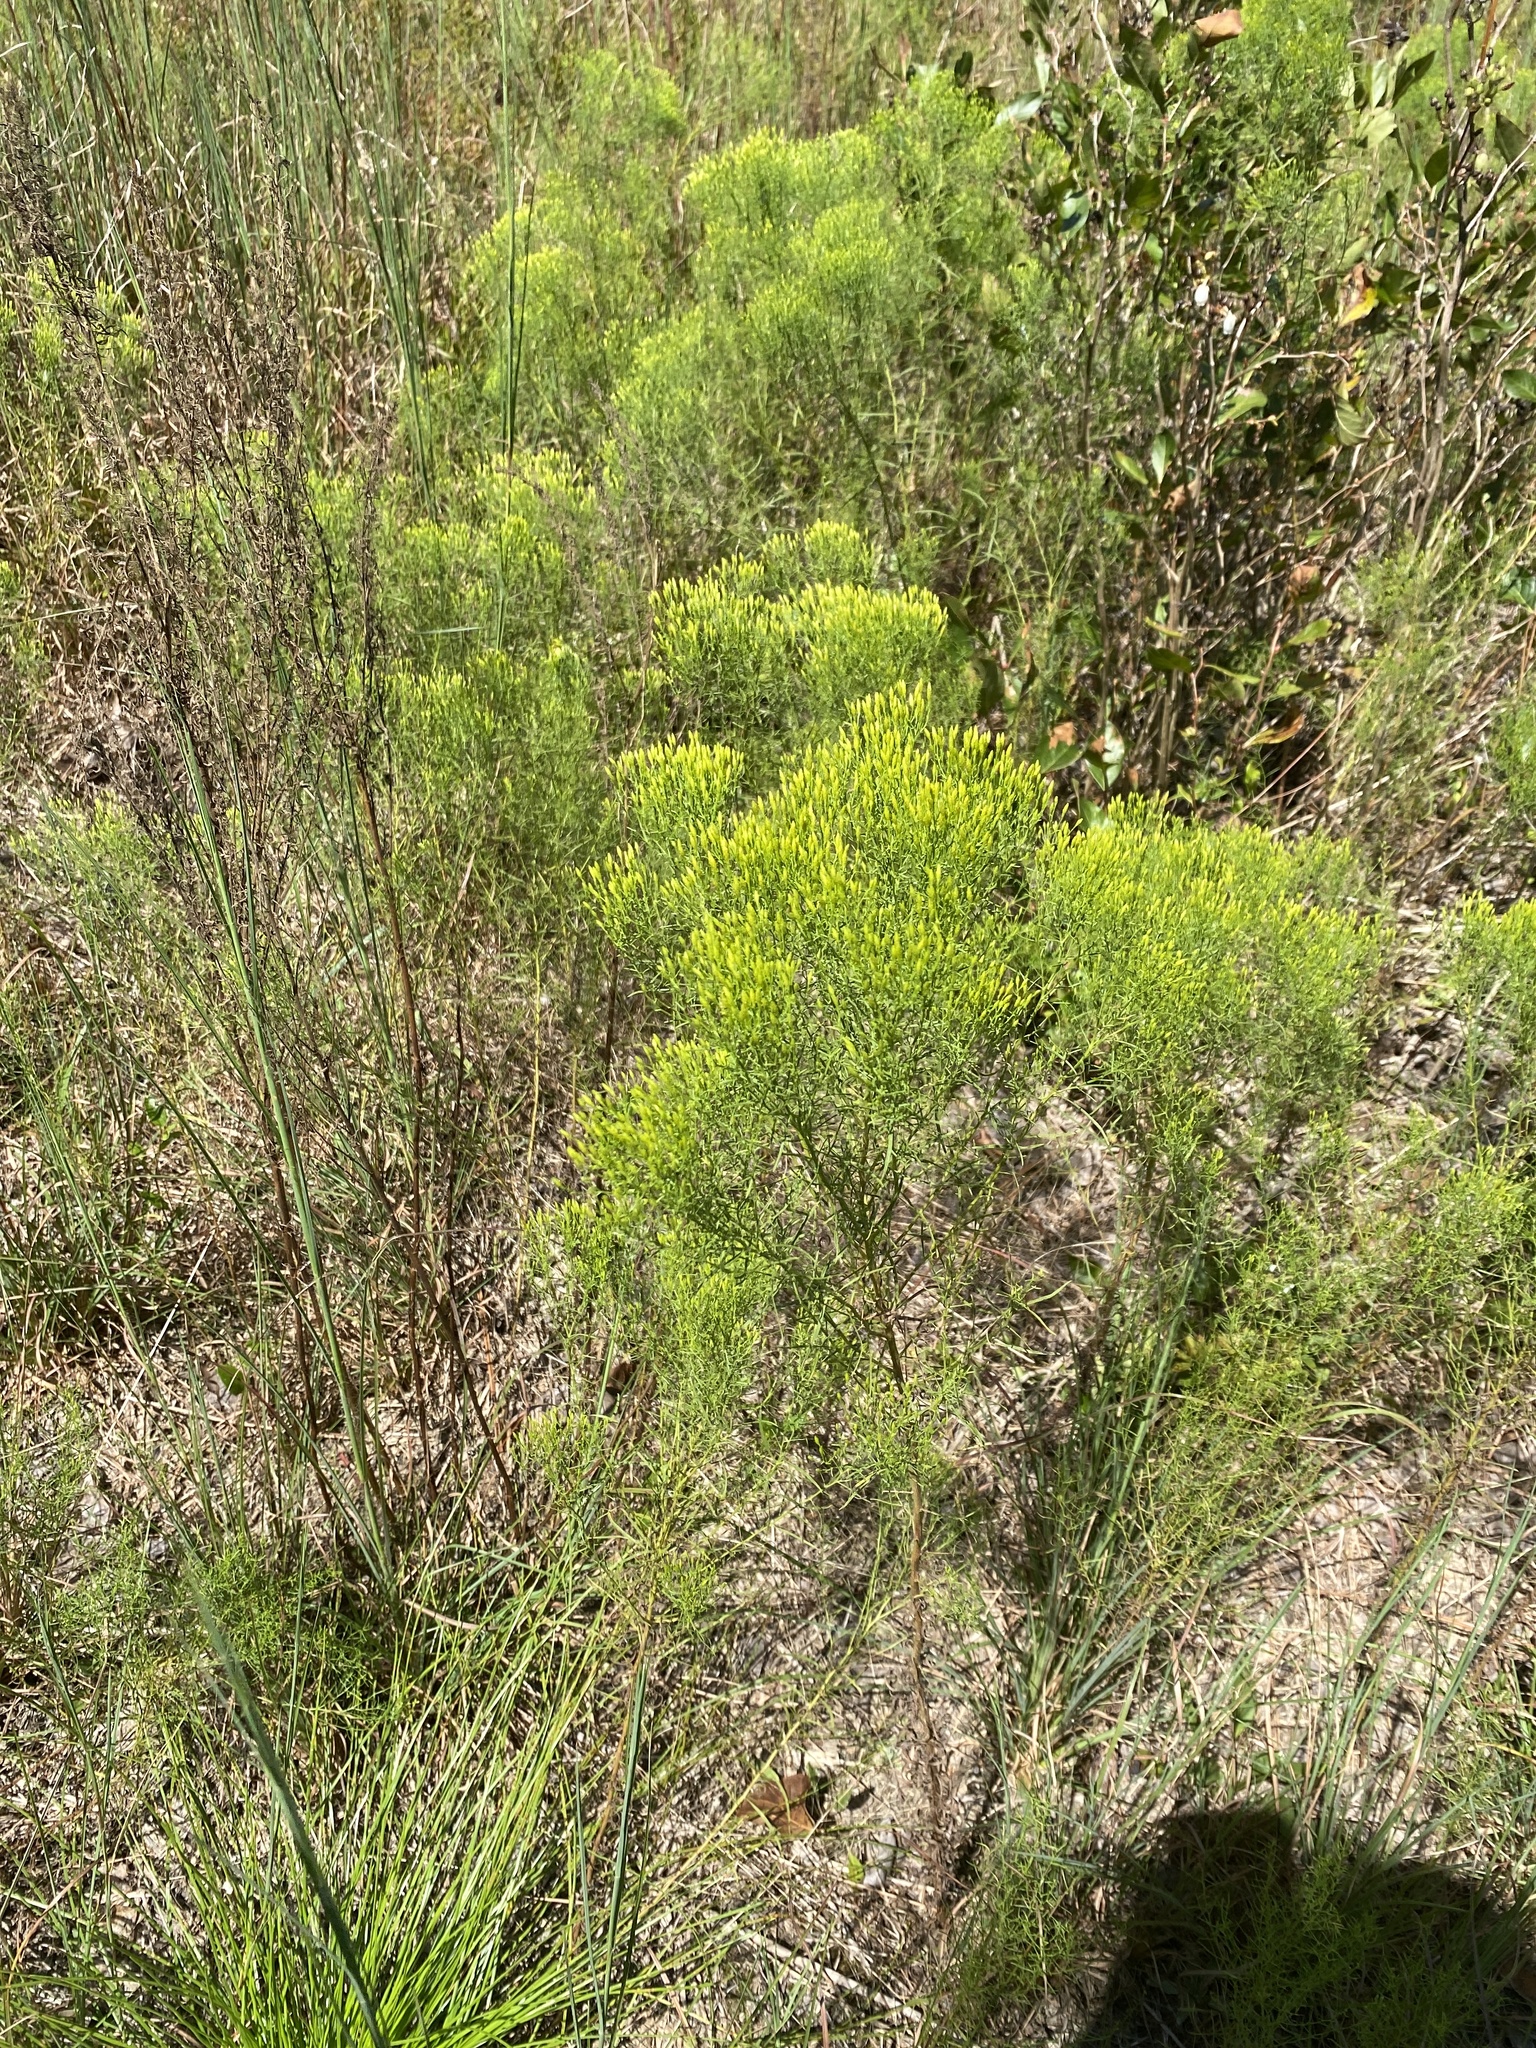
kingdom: Plantae
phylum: Tracheophyta
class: Magnoliopsida
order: Asterales
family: Asteraceae
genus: Euthamia
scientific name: Euthamia caroliniana
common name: Coastal plain goldentop
